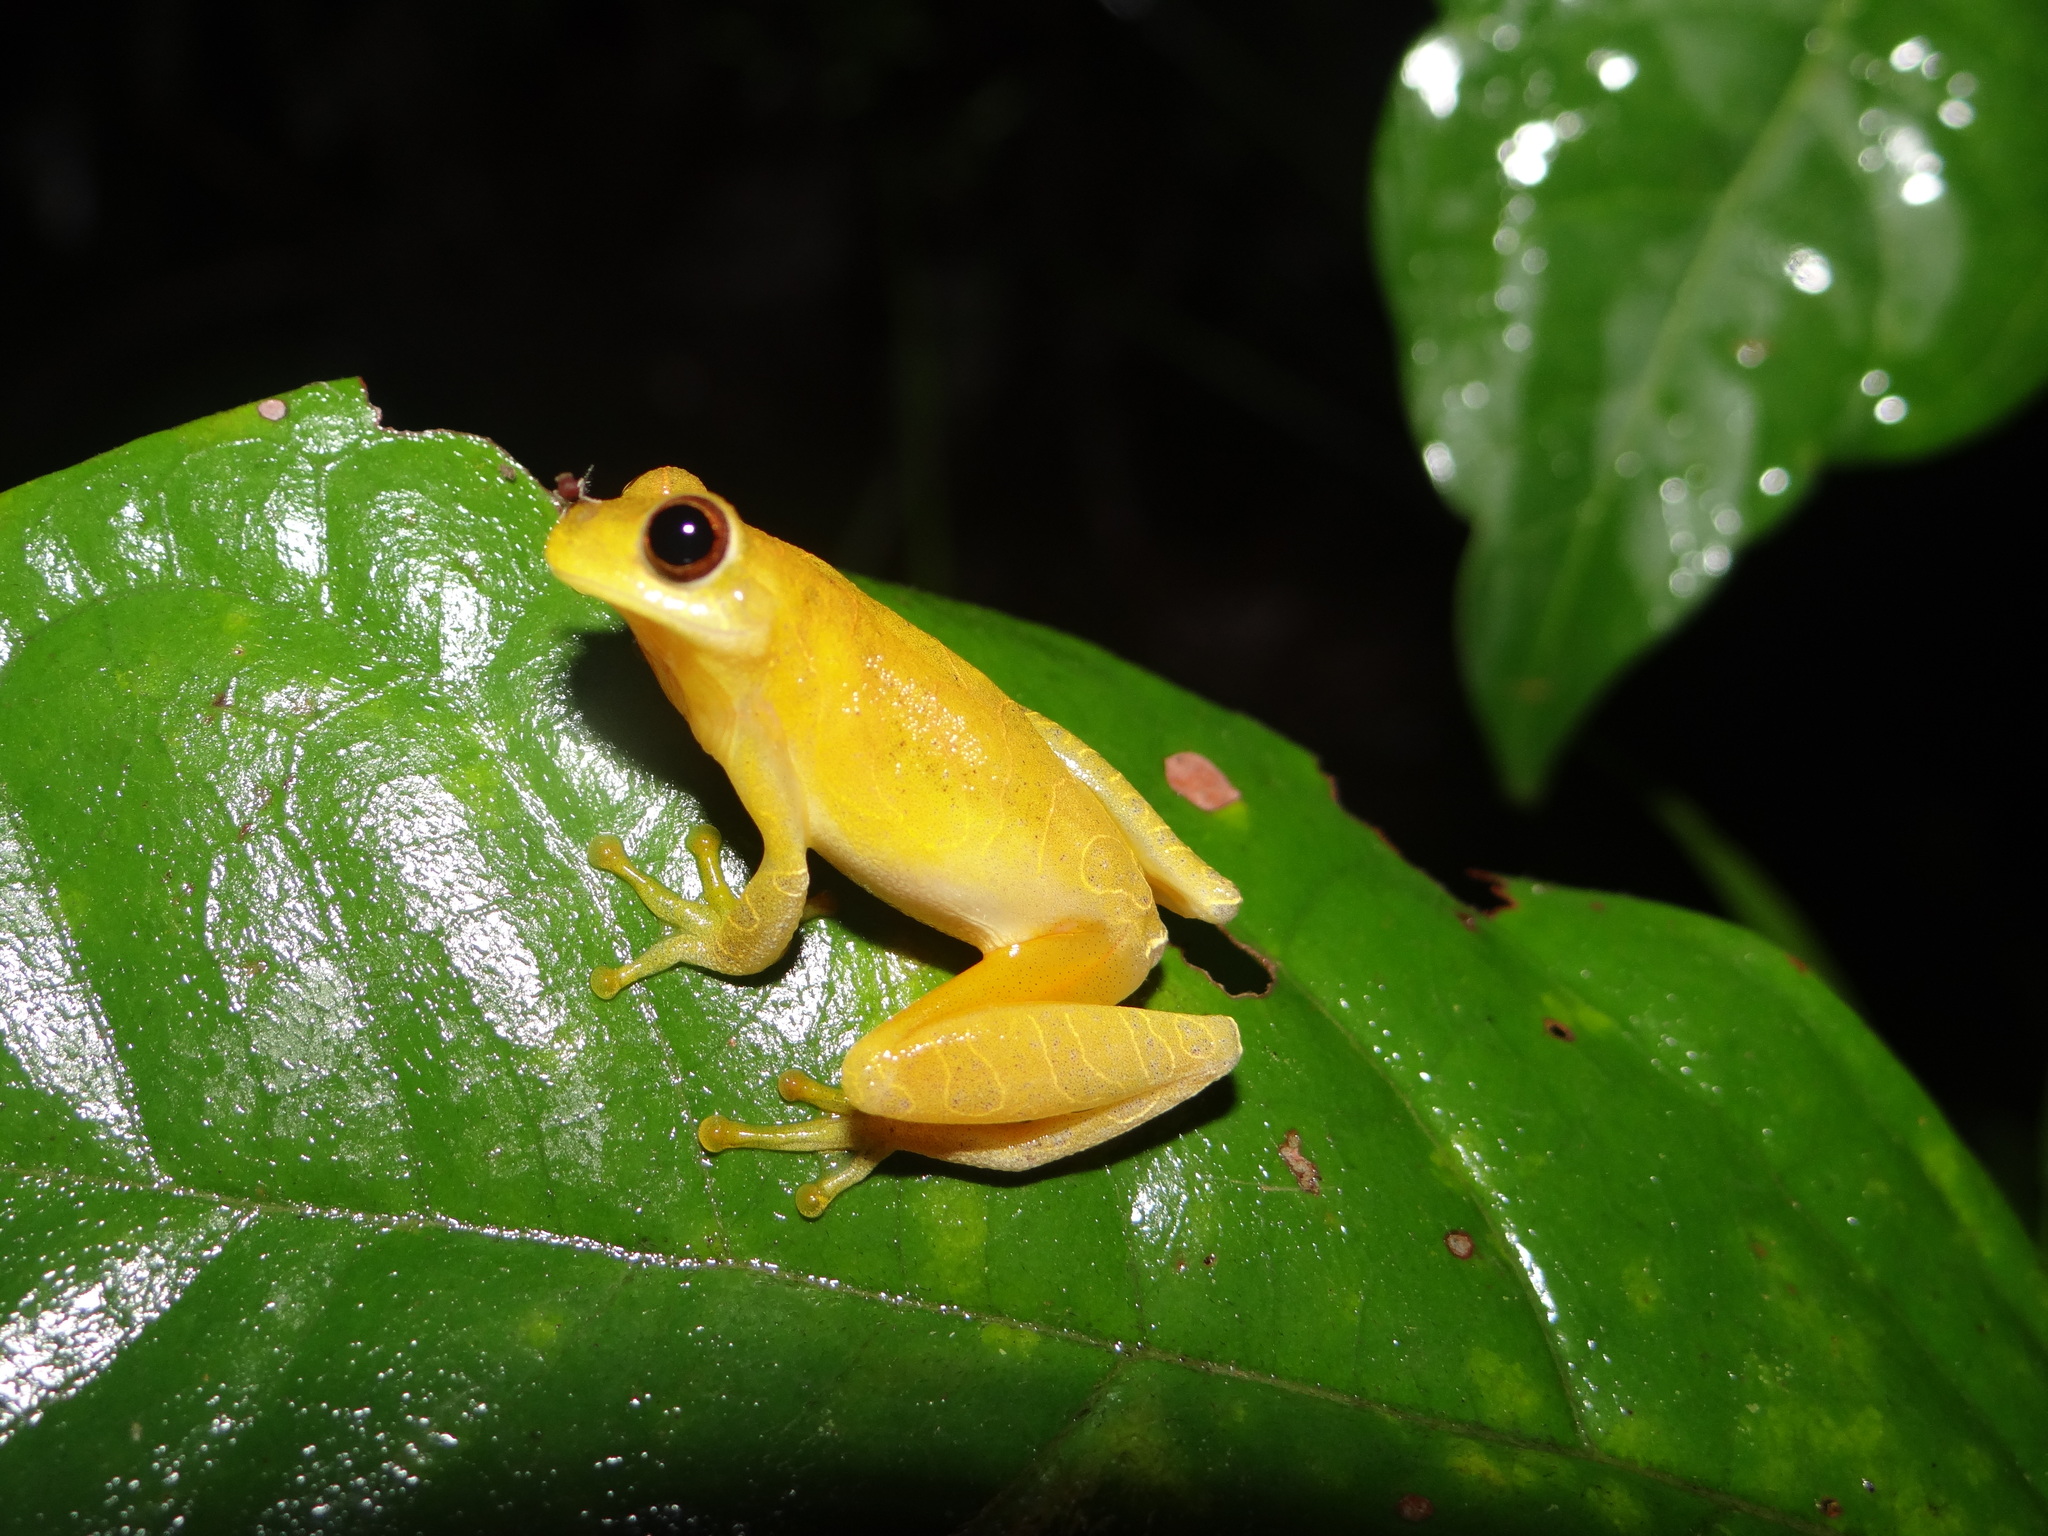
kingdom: Animalia
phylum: Chordata
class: Amphibia
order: Anura
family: Hylidae
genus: Dendropsophus
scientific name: Dendropsophus minutus
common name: Lesser treefrog
